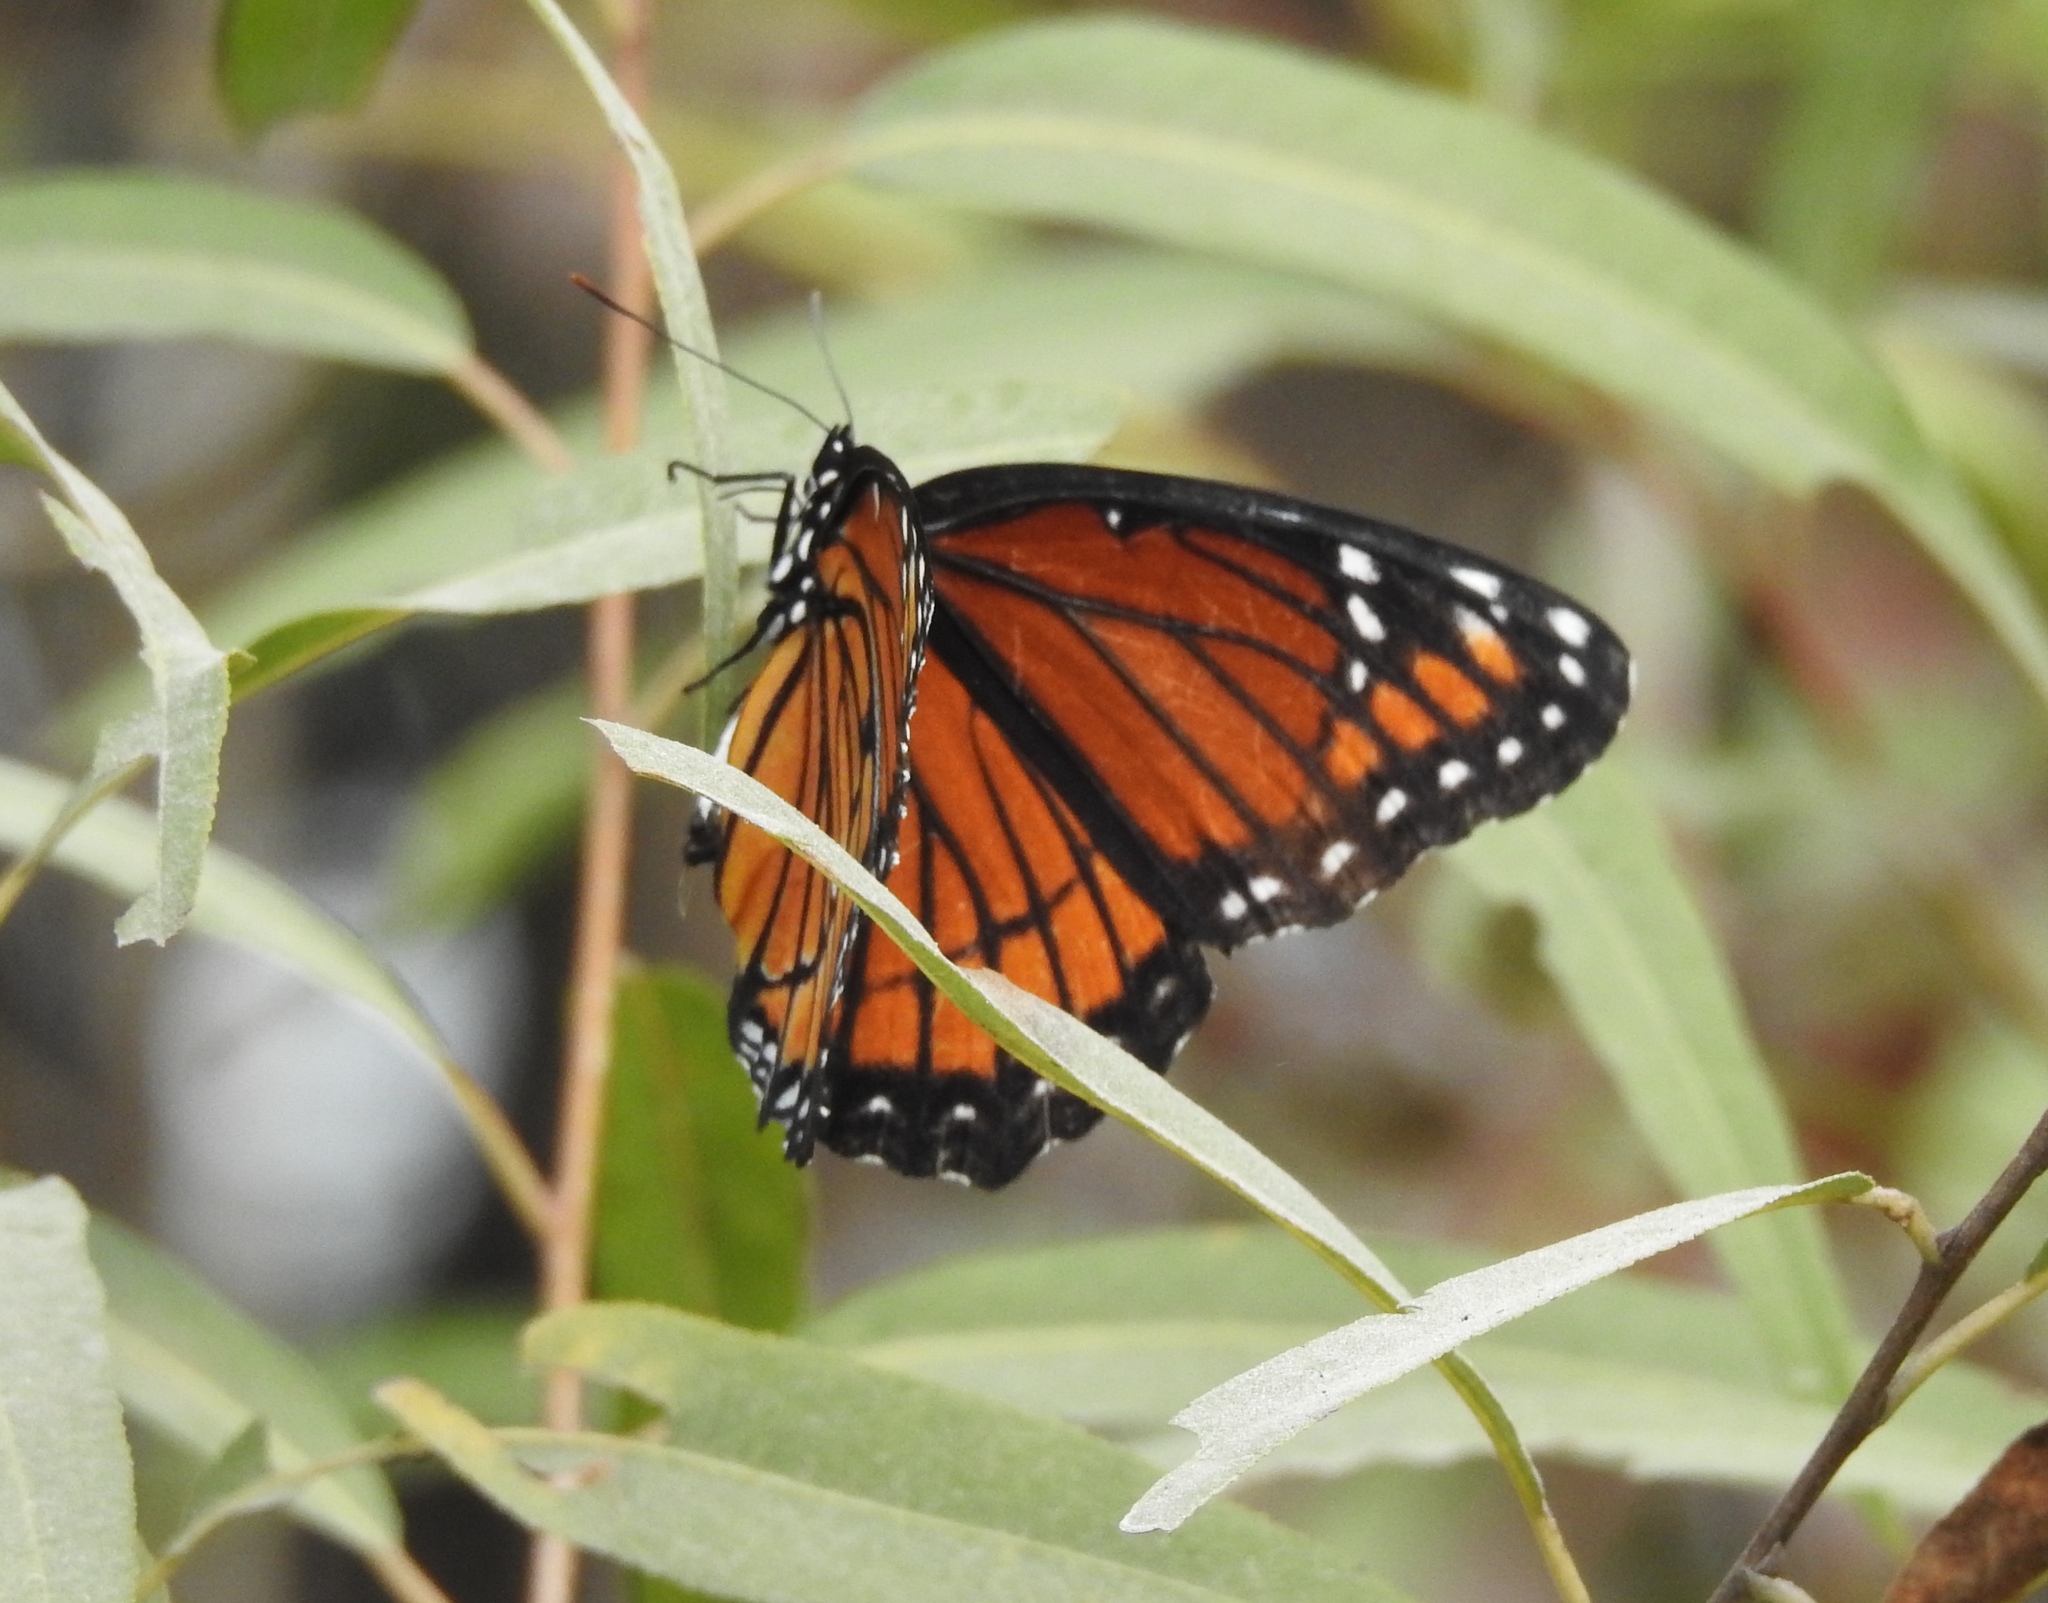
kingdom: Animalia
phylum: Arthropoda
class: Insecta
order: Lepidoptera
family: Nymphalidae
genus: Limenitis
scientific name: Limenitis archippus
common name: Viceroy
